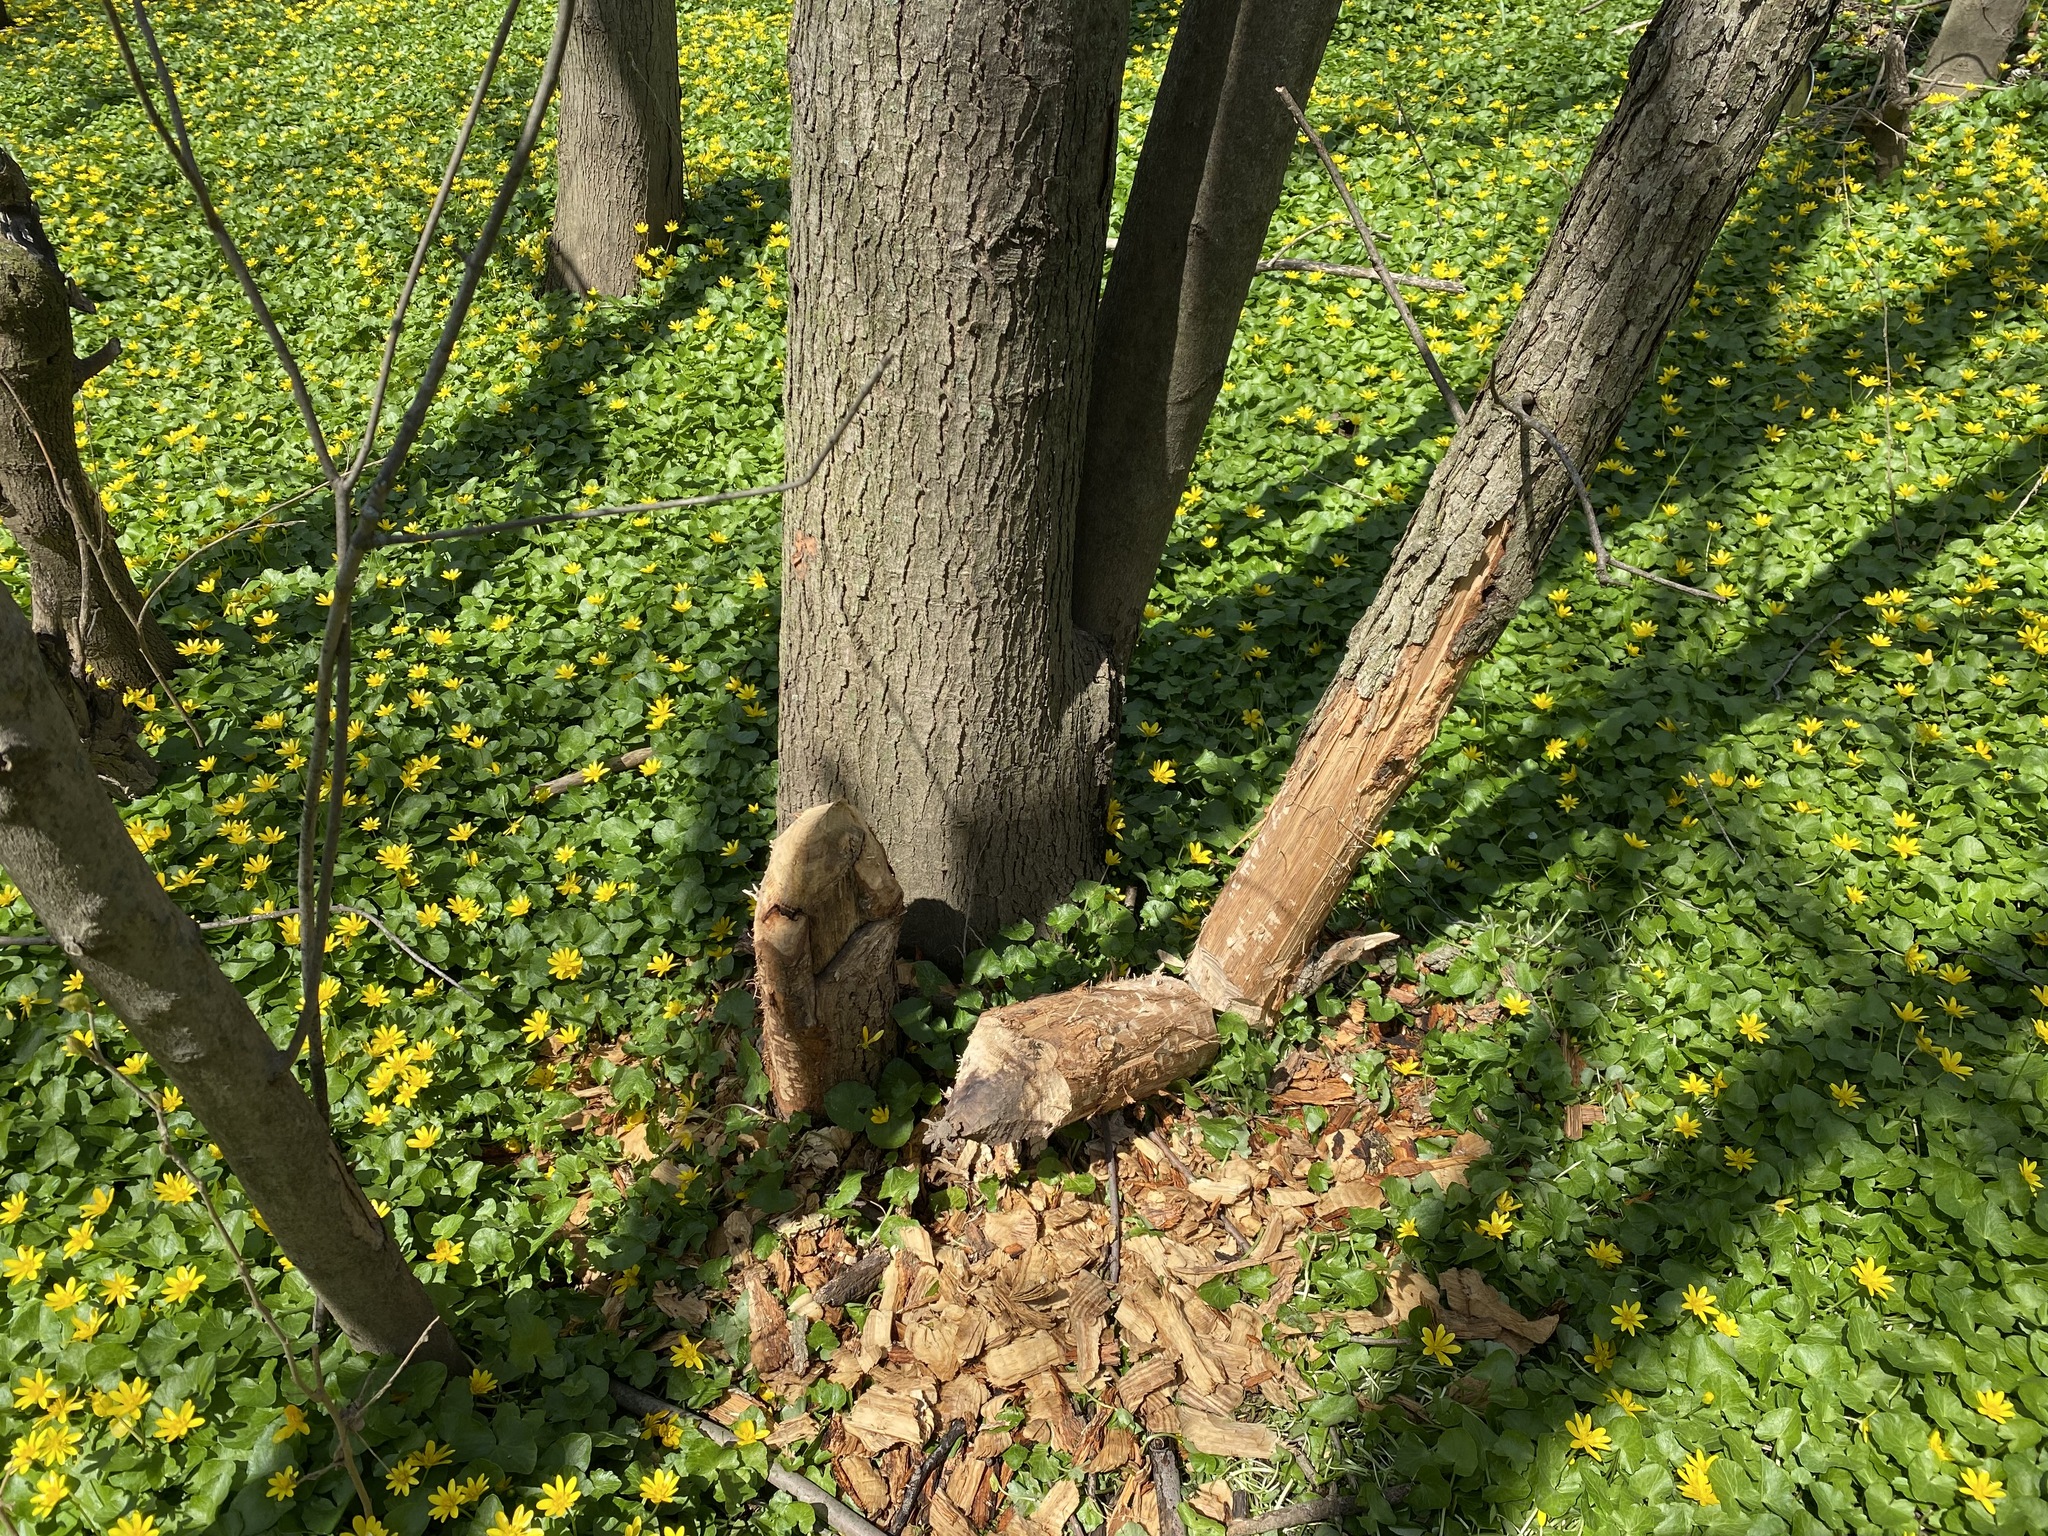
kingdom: Animalia
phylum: Chordata
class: Mammalia
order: Rodentia
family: Castoridae
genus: Castor
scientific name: Castor canadensis
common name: American beaver
